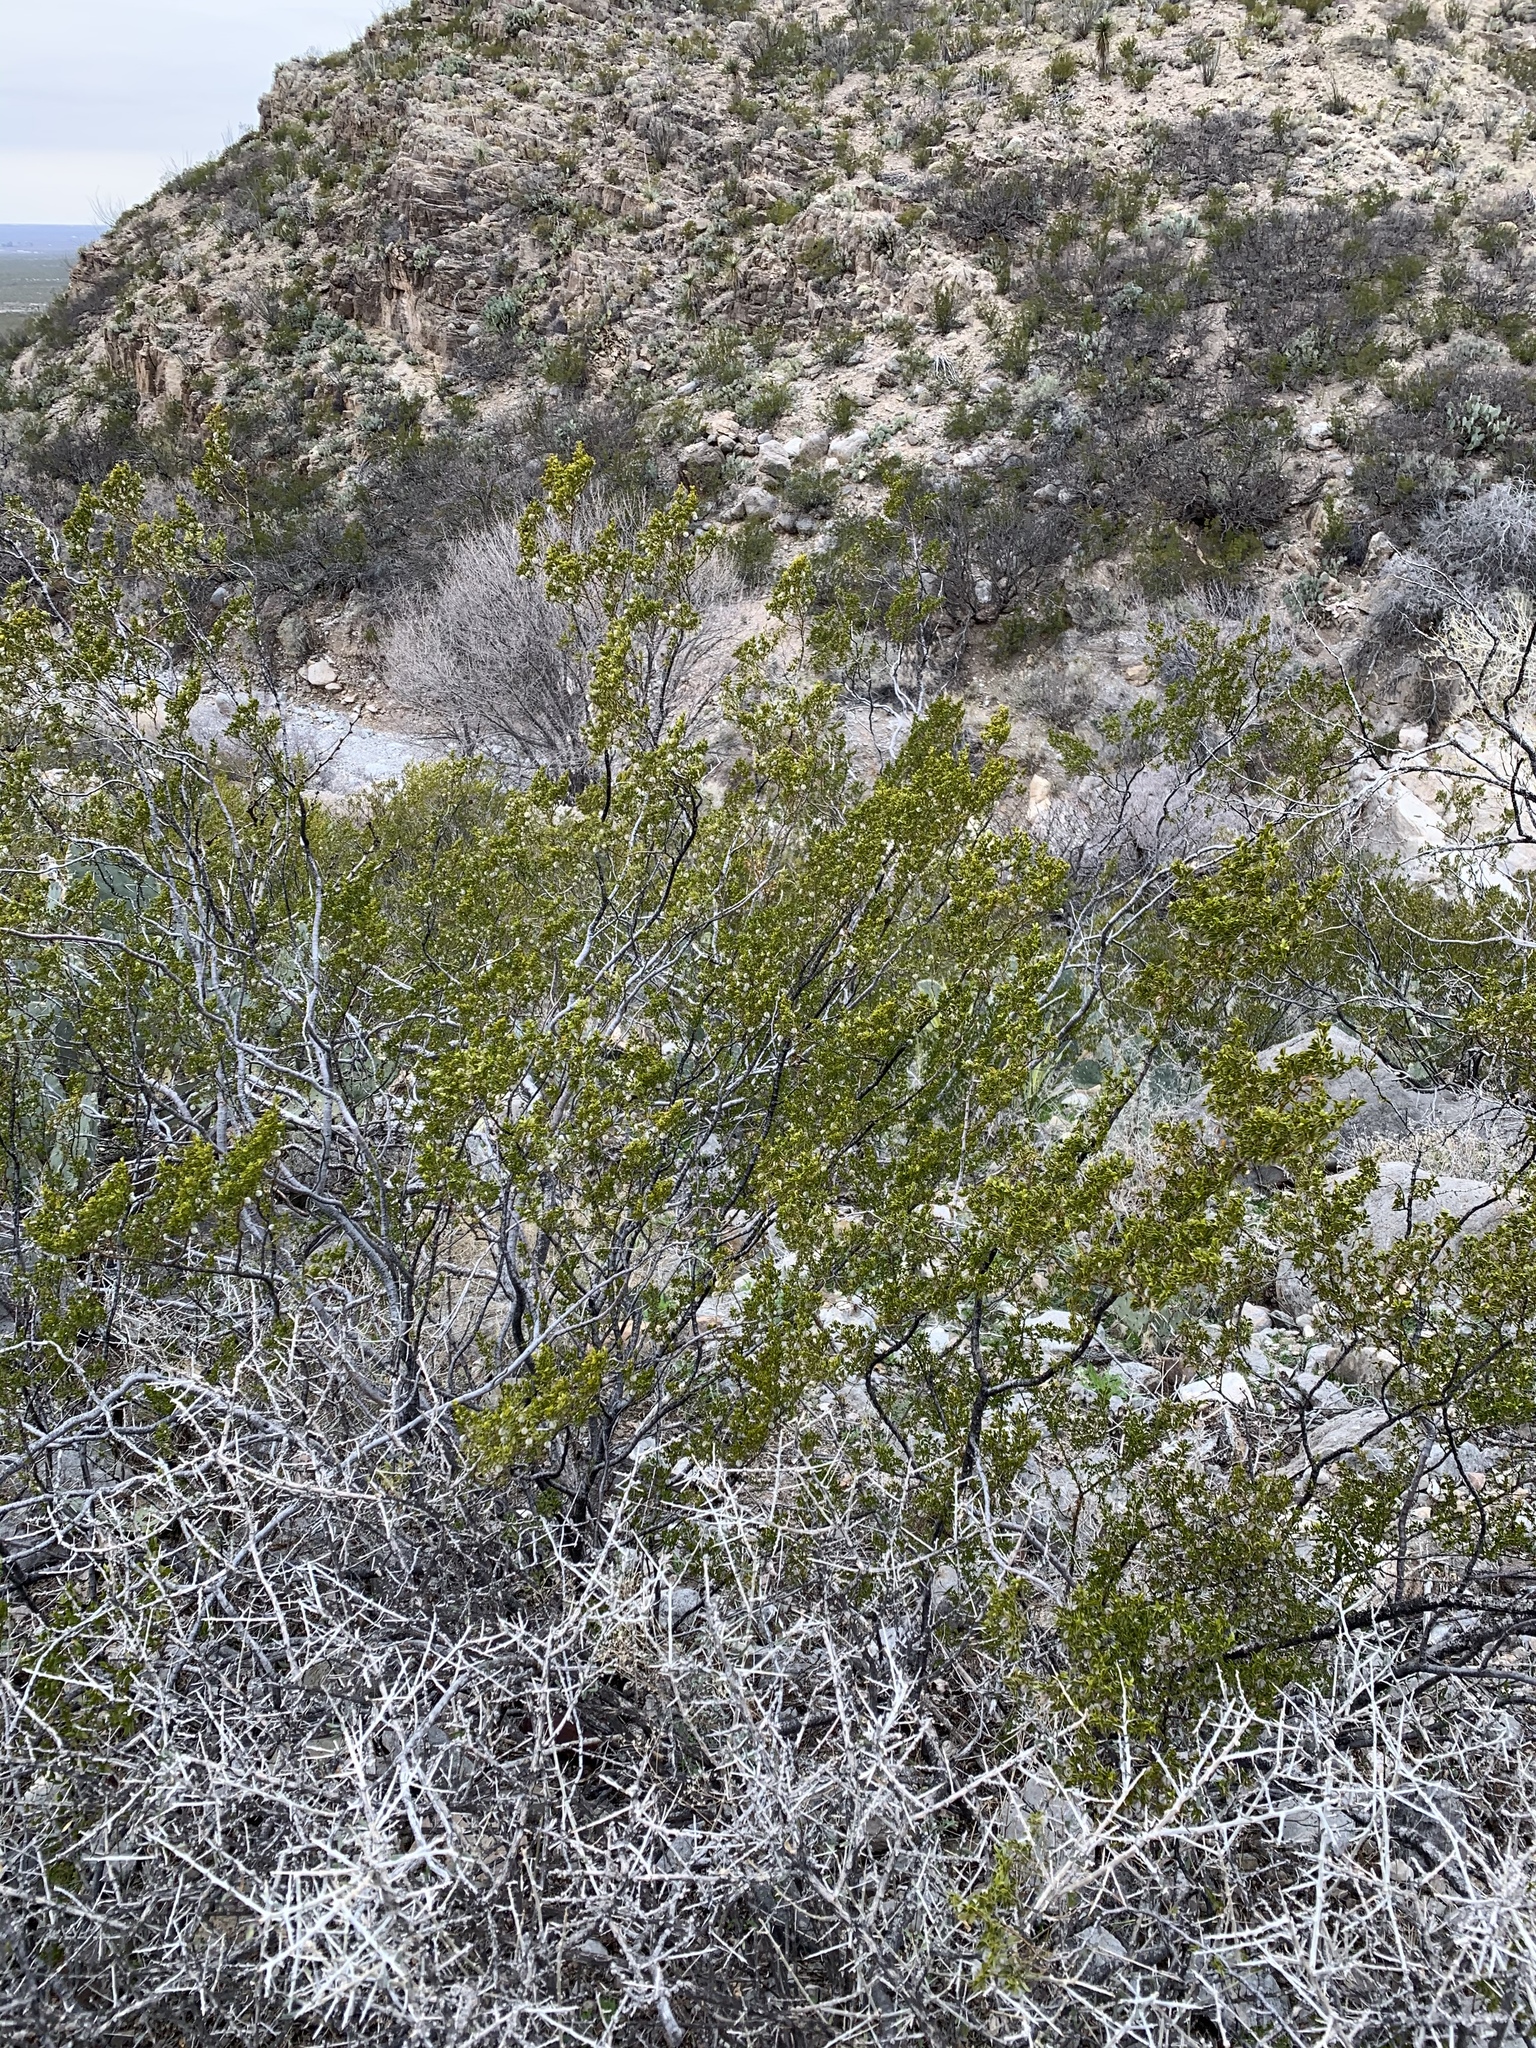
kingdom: Plantae
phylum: Tracheophyta
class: Magnoliopsida
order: Zygophyllales
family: Zygophyllaceae
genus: Larrea
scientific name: Larrea tridentata
